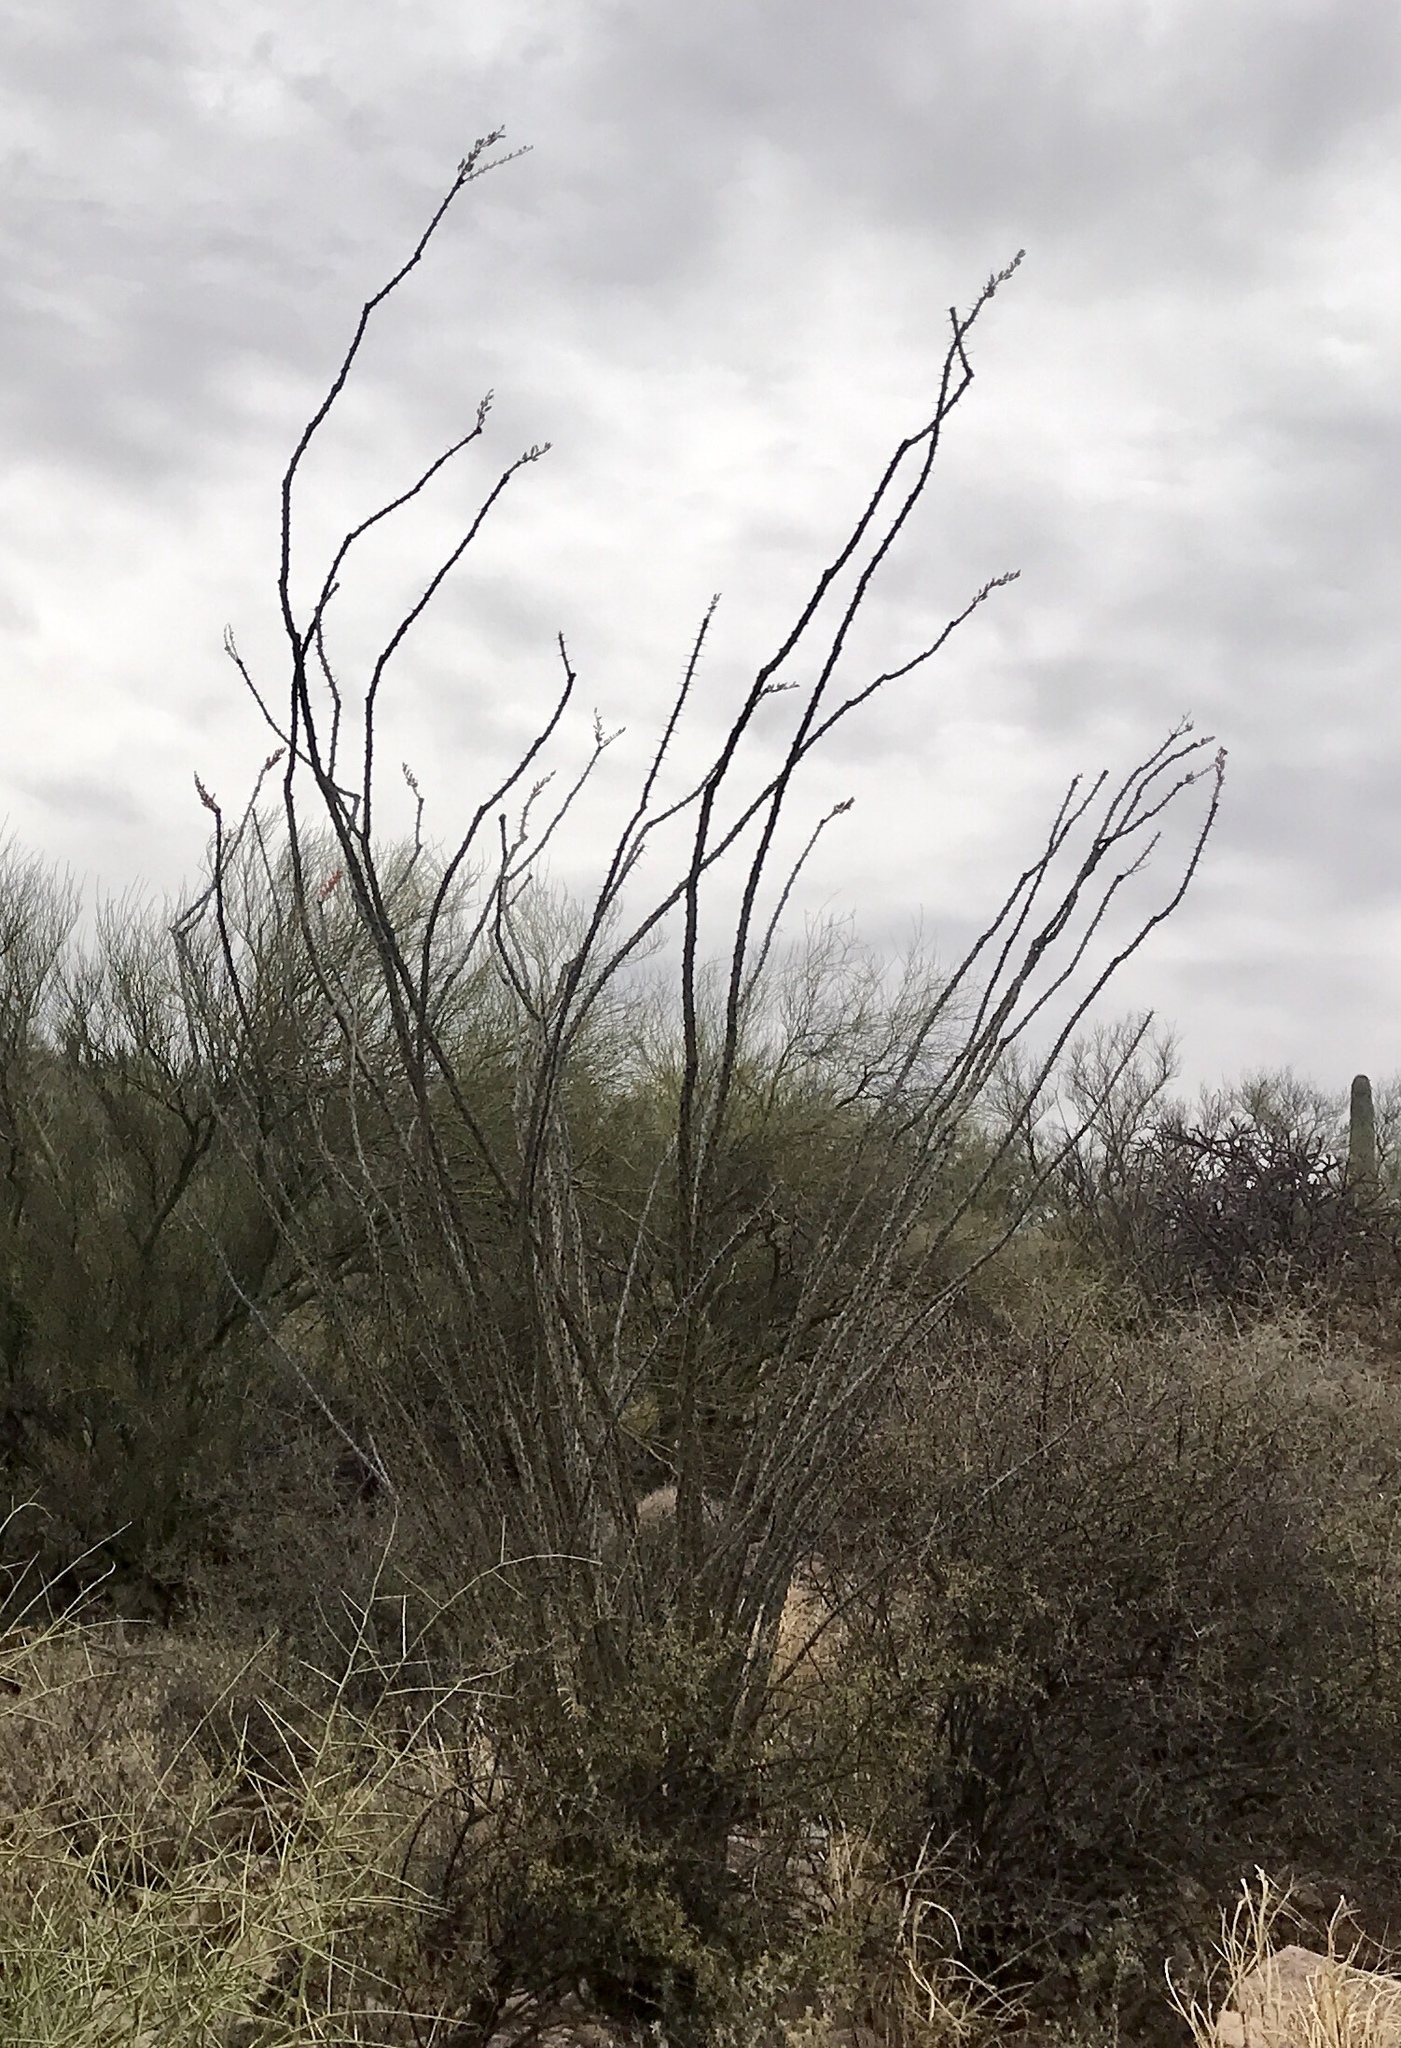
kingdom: Plantae
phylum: Tracheophyta
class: Magnoliopsida
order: Ericales
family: Fouquieriaceae
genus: Fouquieria
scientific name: Fouquieria splendens
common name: Vine-cactus
